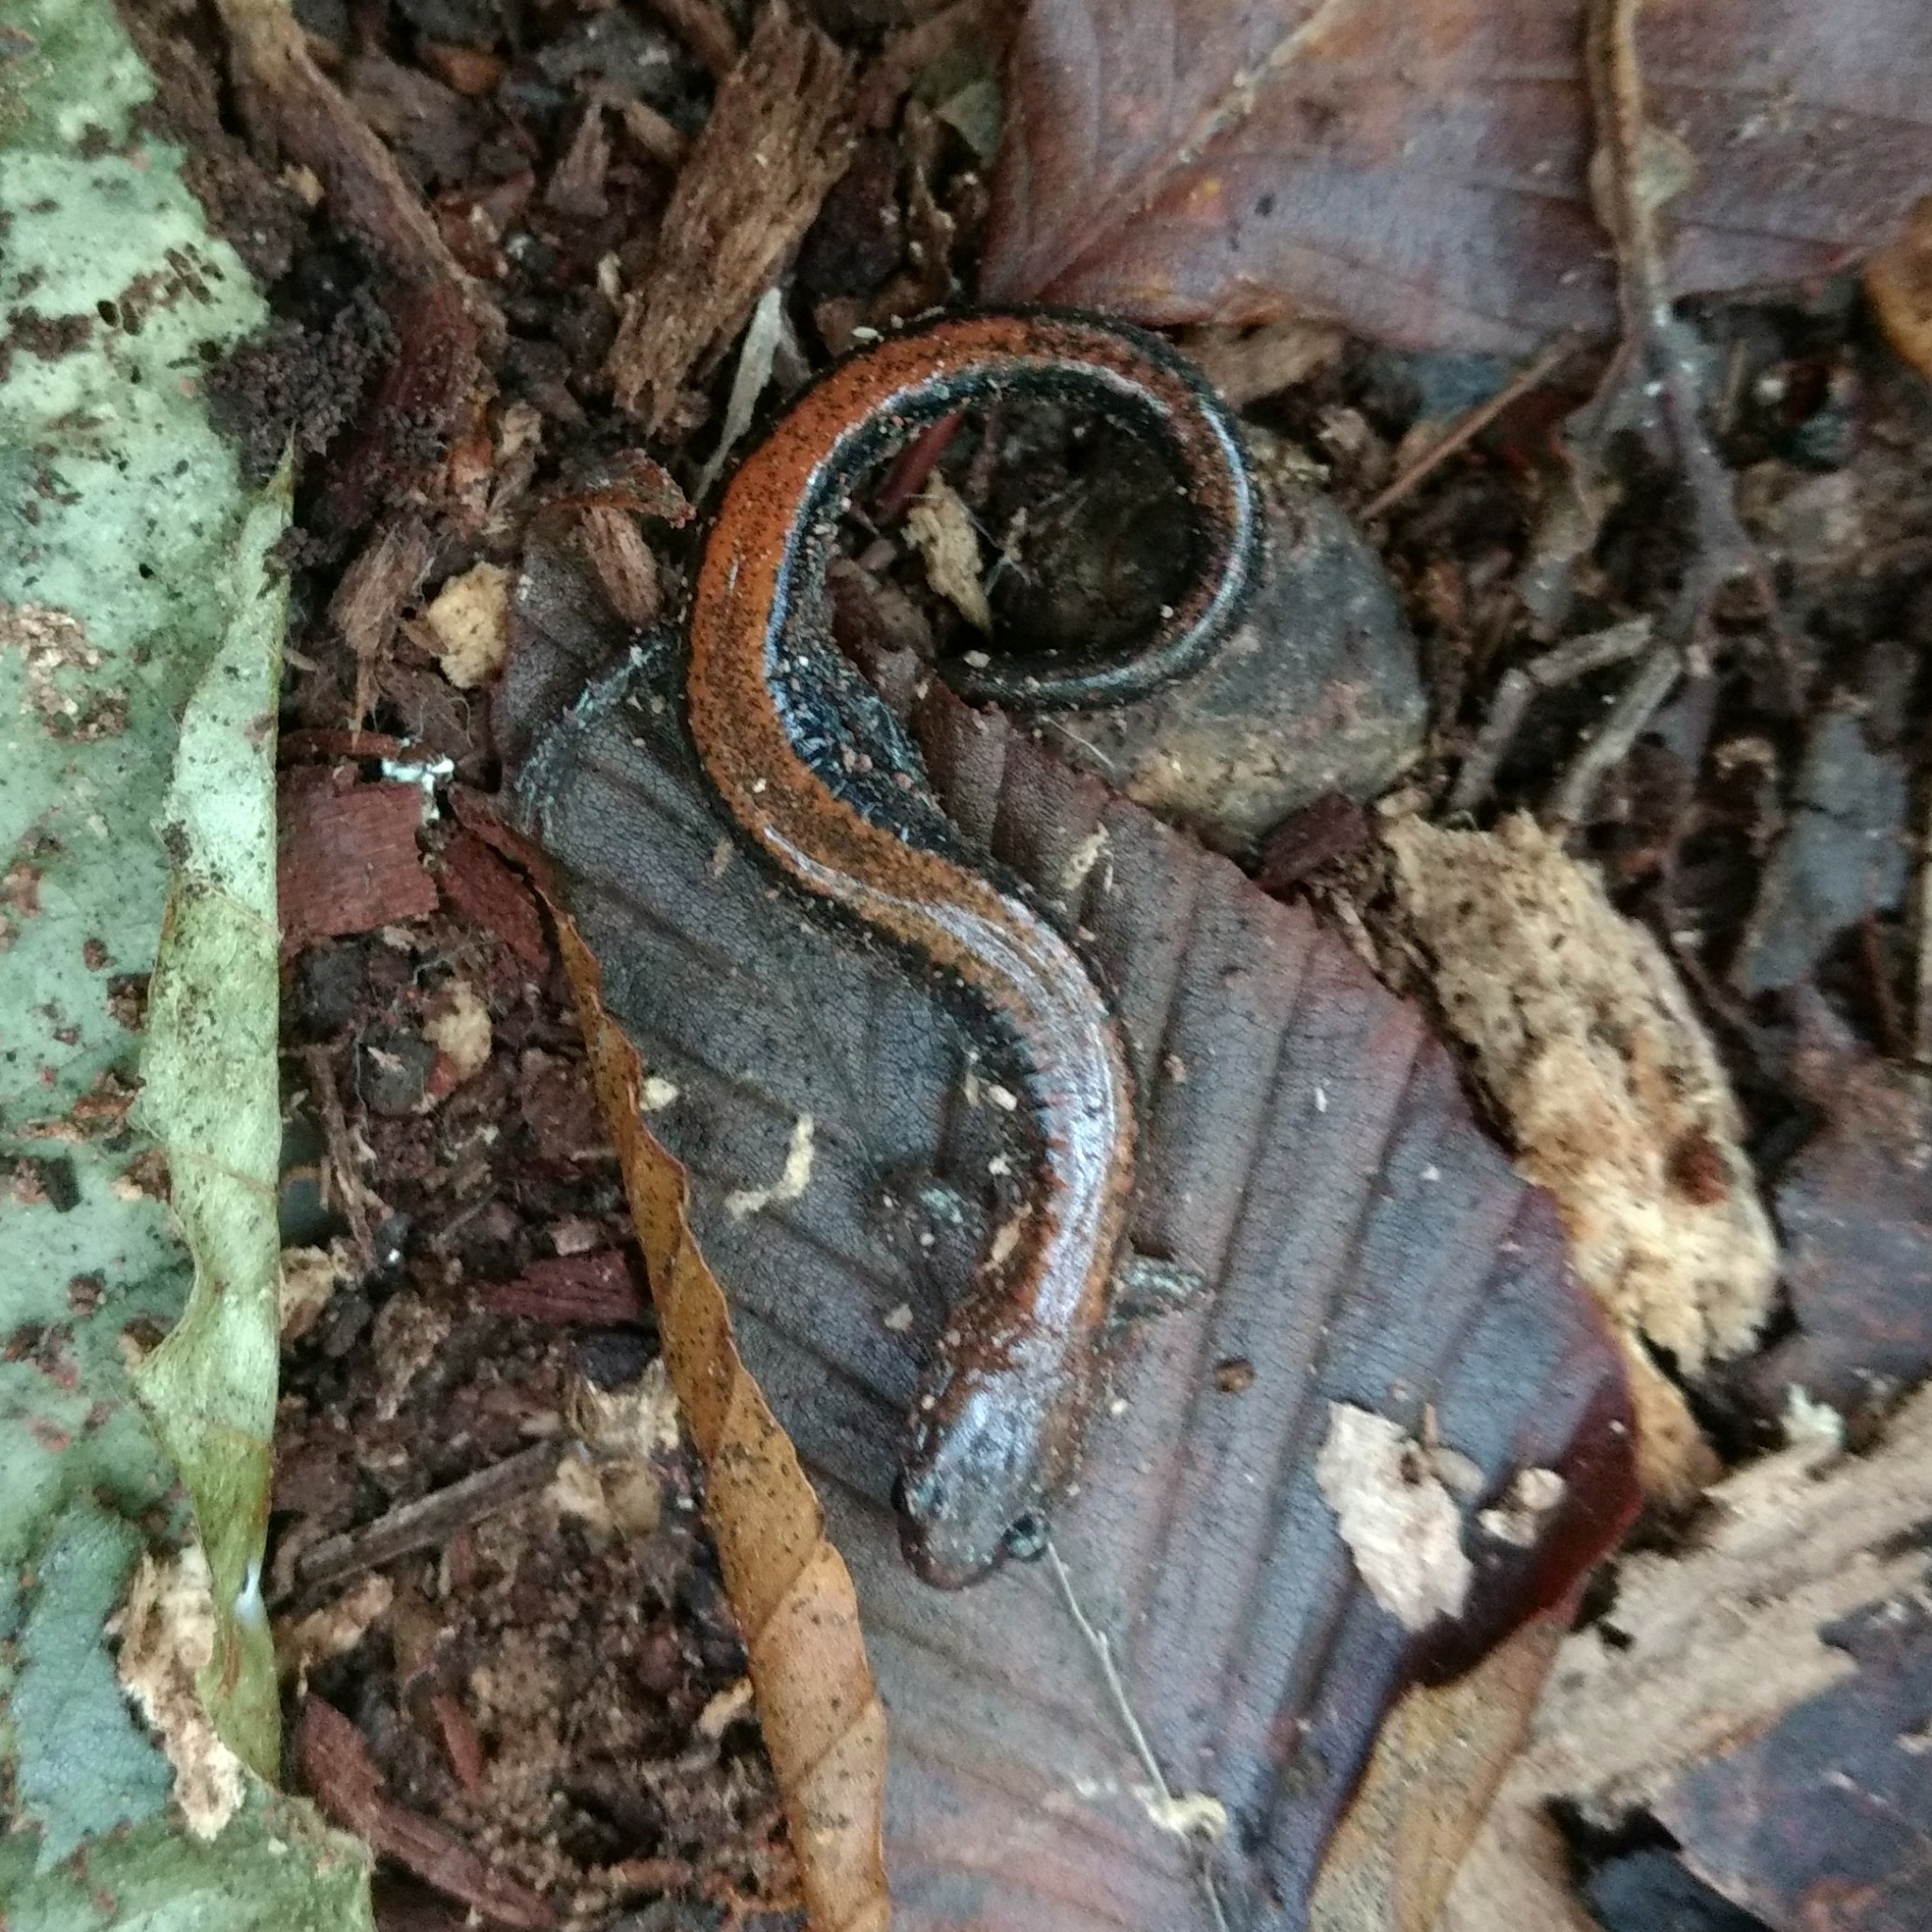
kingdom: Animalia
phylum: Chordata
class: Amphibia
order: Caudata
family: Plethodontidae
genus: Plethodon
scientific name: Plethodon cinereus
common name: Redback salamander
